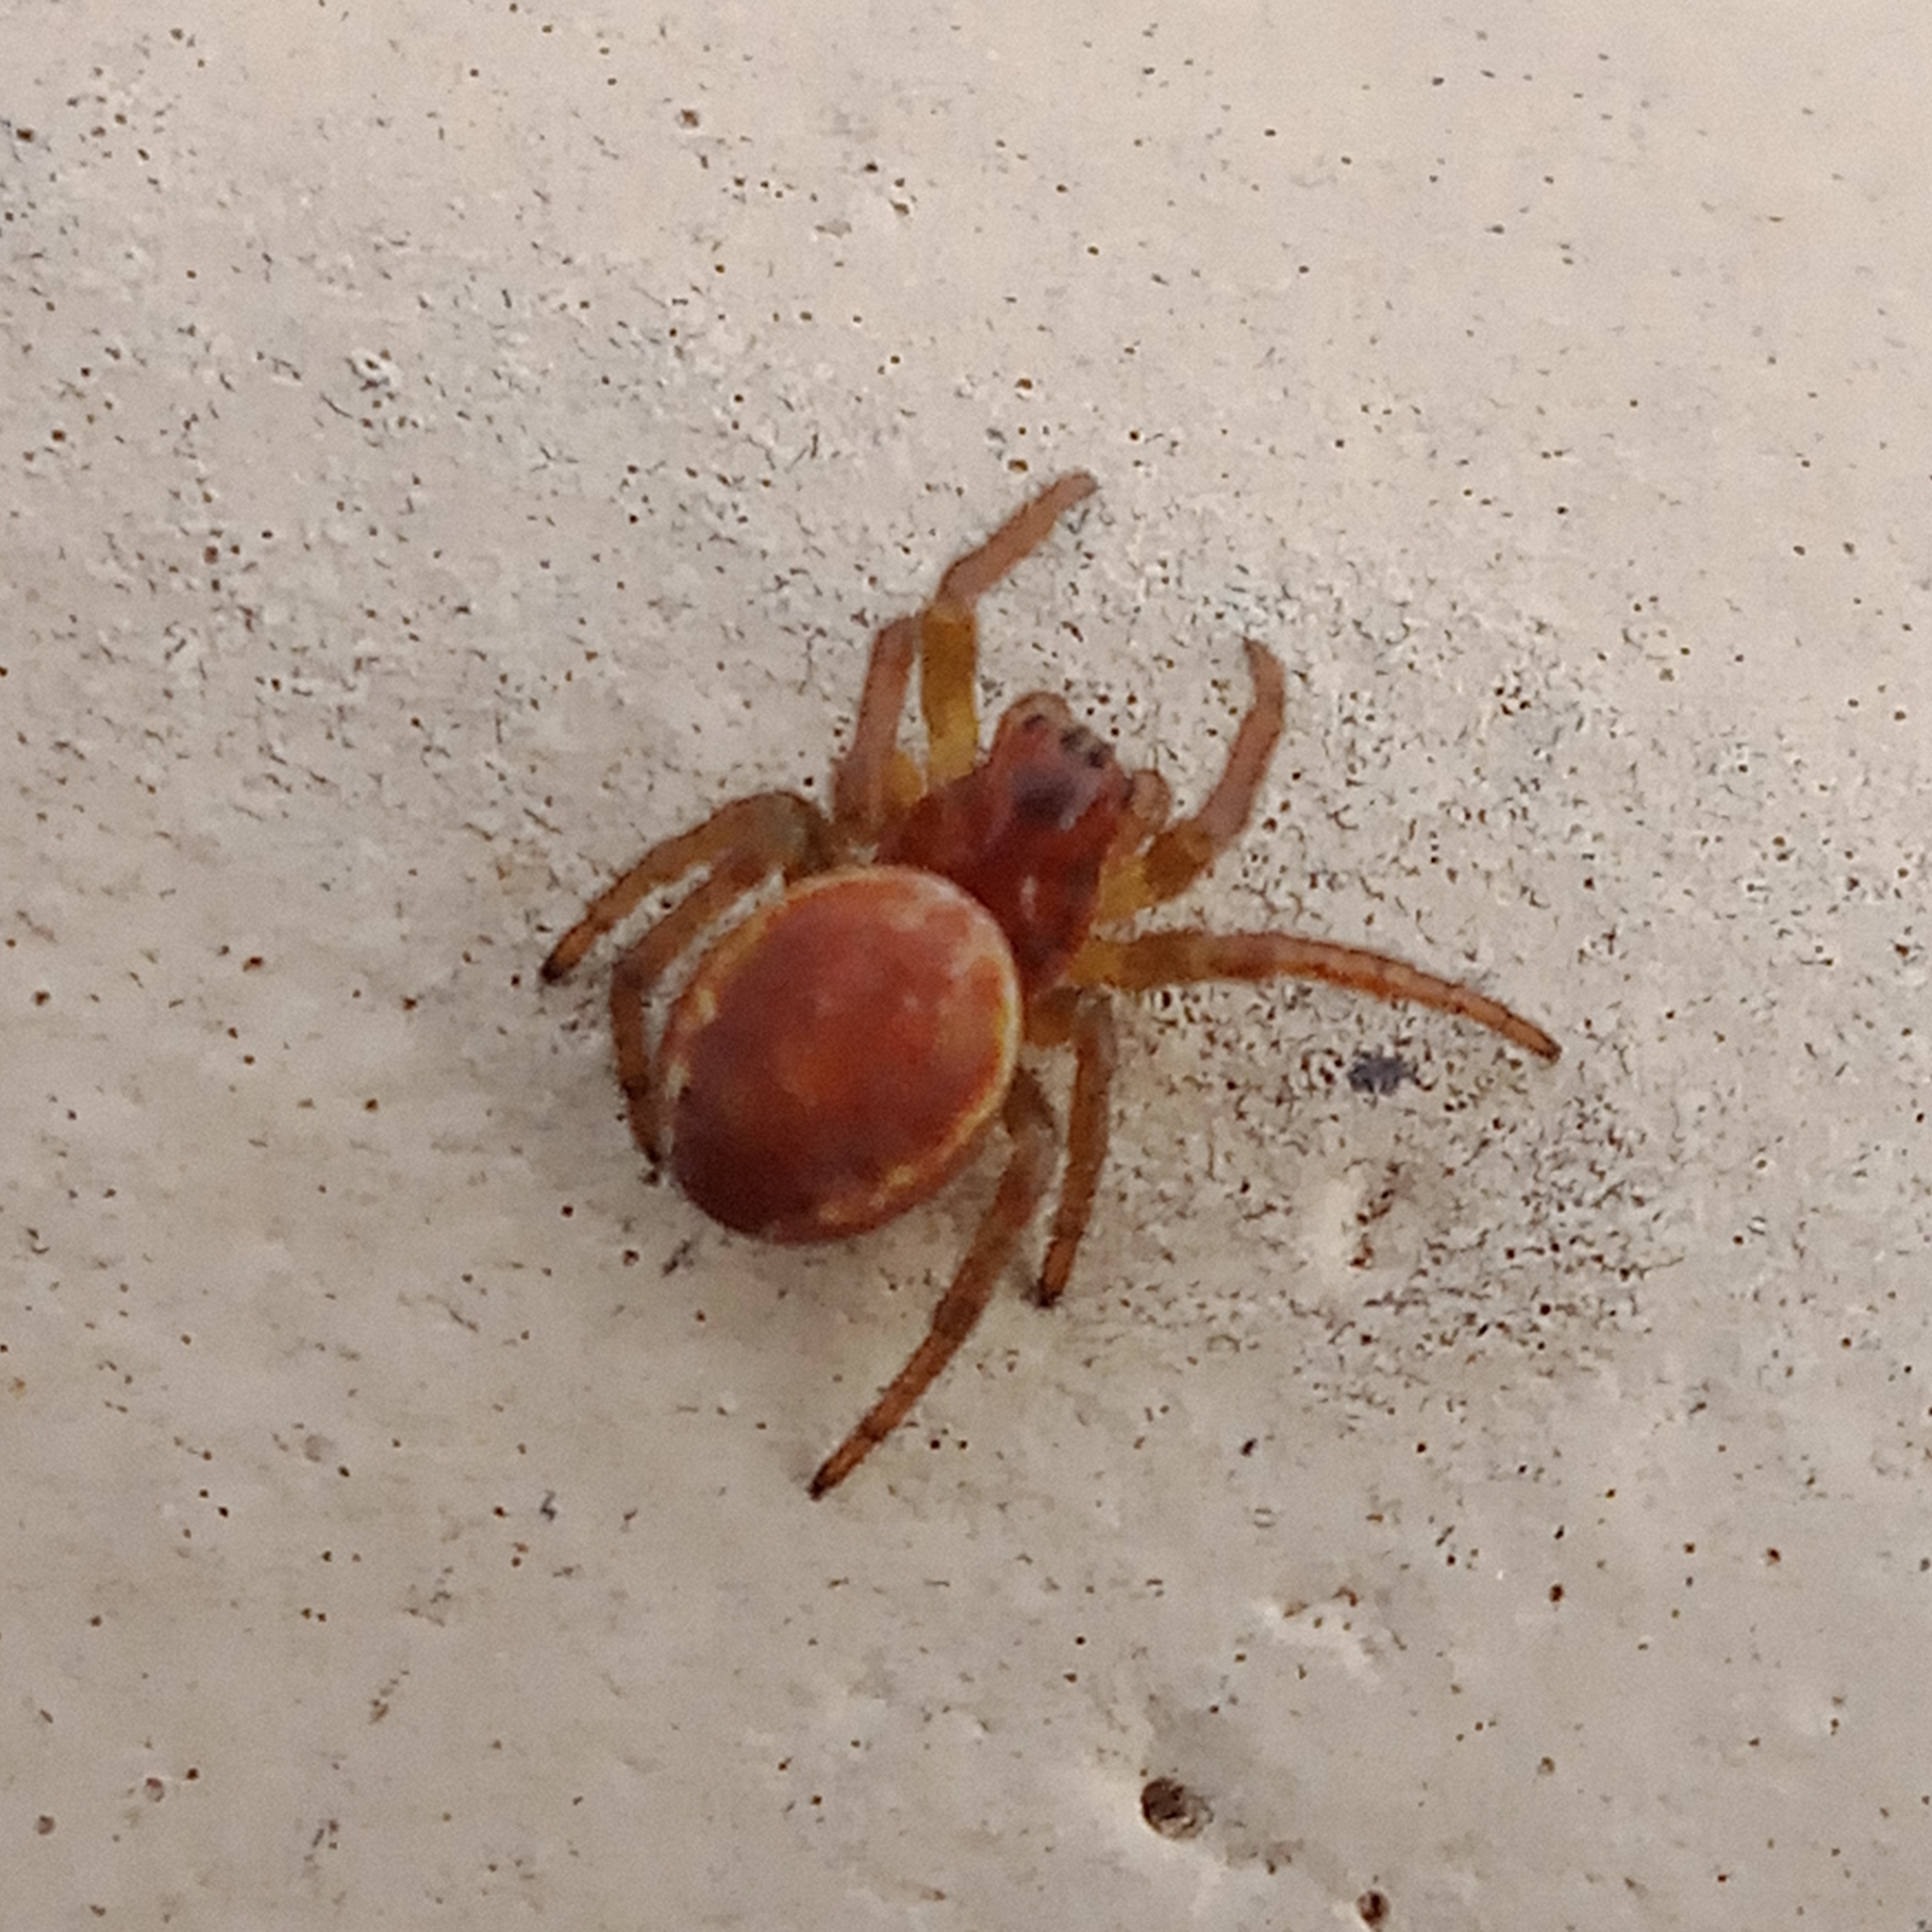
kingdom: Animalia
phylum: Arthropoda
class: Arachnida
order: Araneae
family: Araneidae
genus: Araniella
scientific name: Araniella
